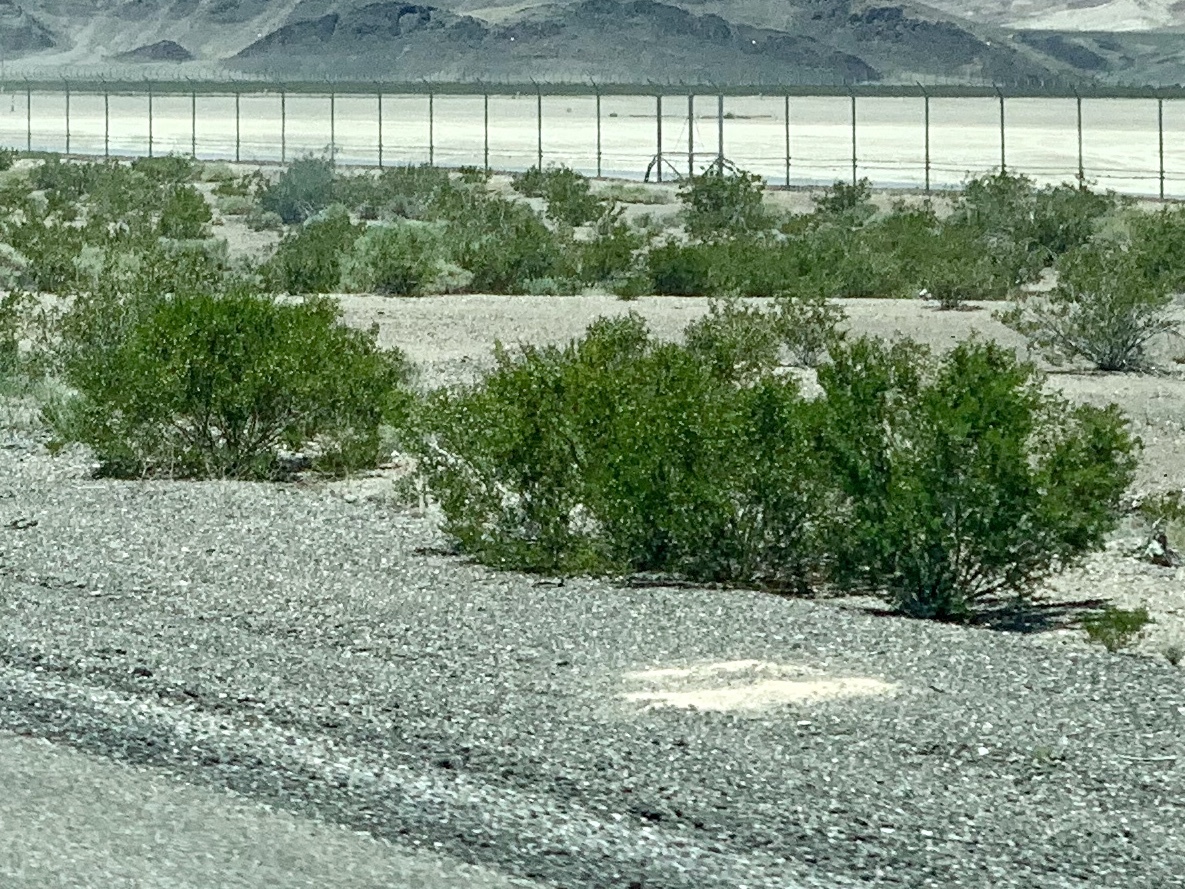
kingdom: Plantae
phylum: Tracheophyta
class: Magnoliopsida
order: Zygophyllales
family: Zygophyllaceae
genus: Larrea
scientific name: Larrea tridentata
